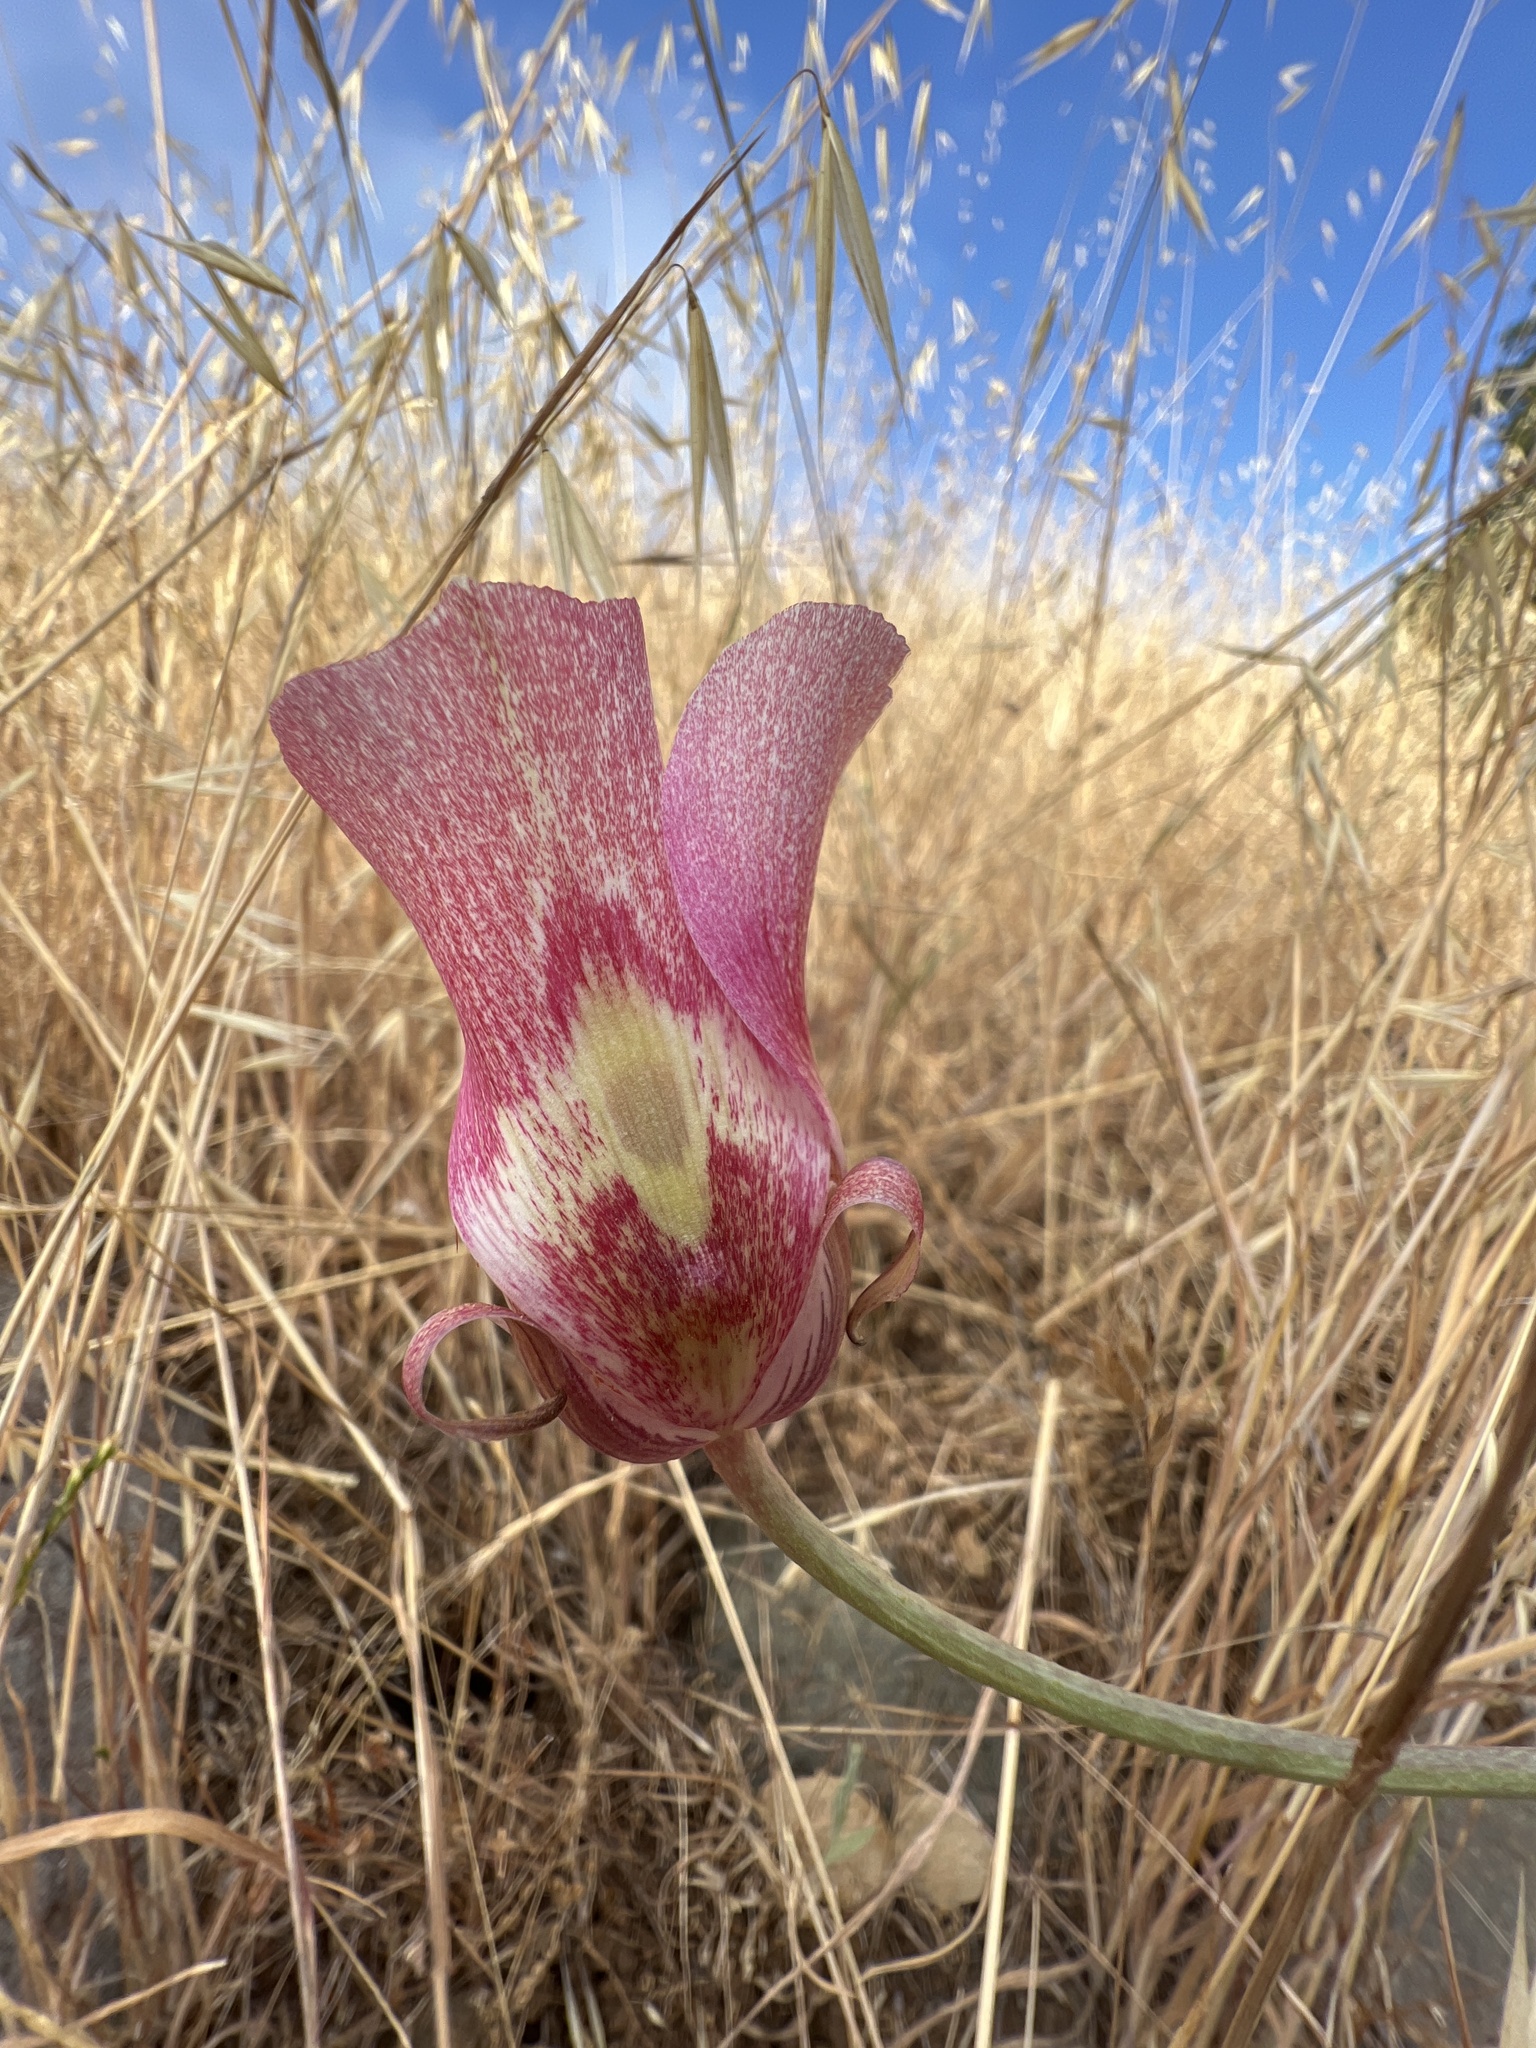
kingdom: Plantae
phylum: Tracheophyta
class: Liliopsida
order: Liliales
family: Liliaceae
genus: Calochortus
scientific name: Calochortus argillosus
